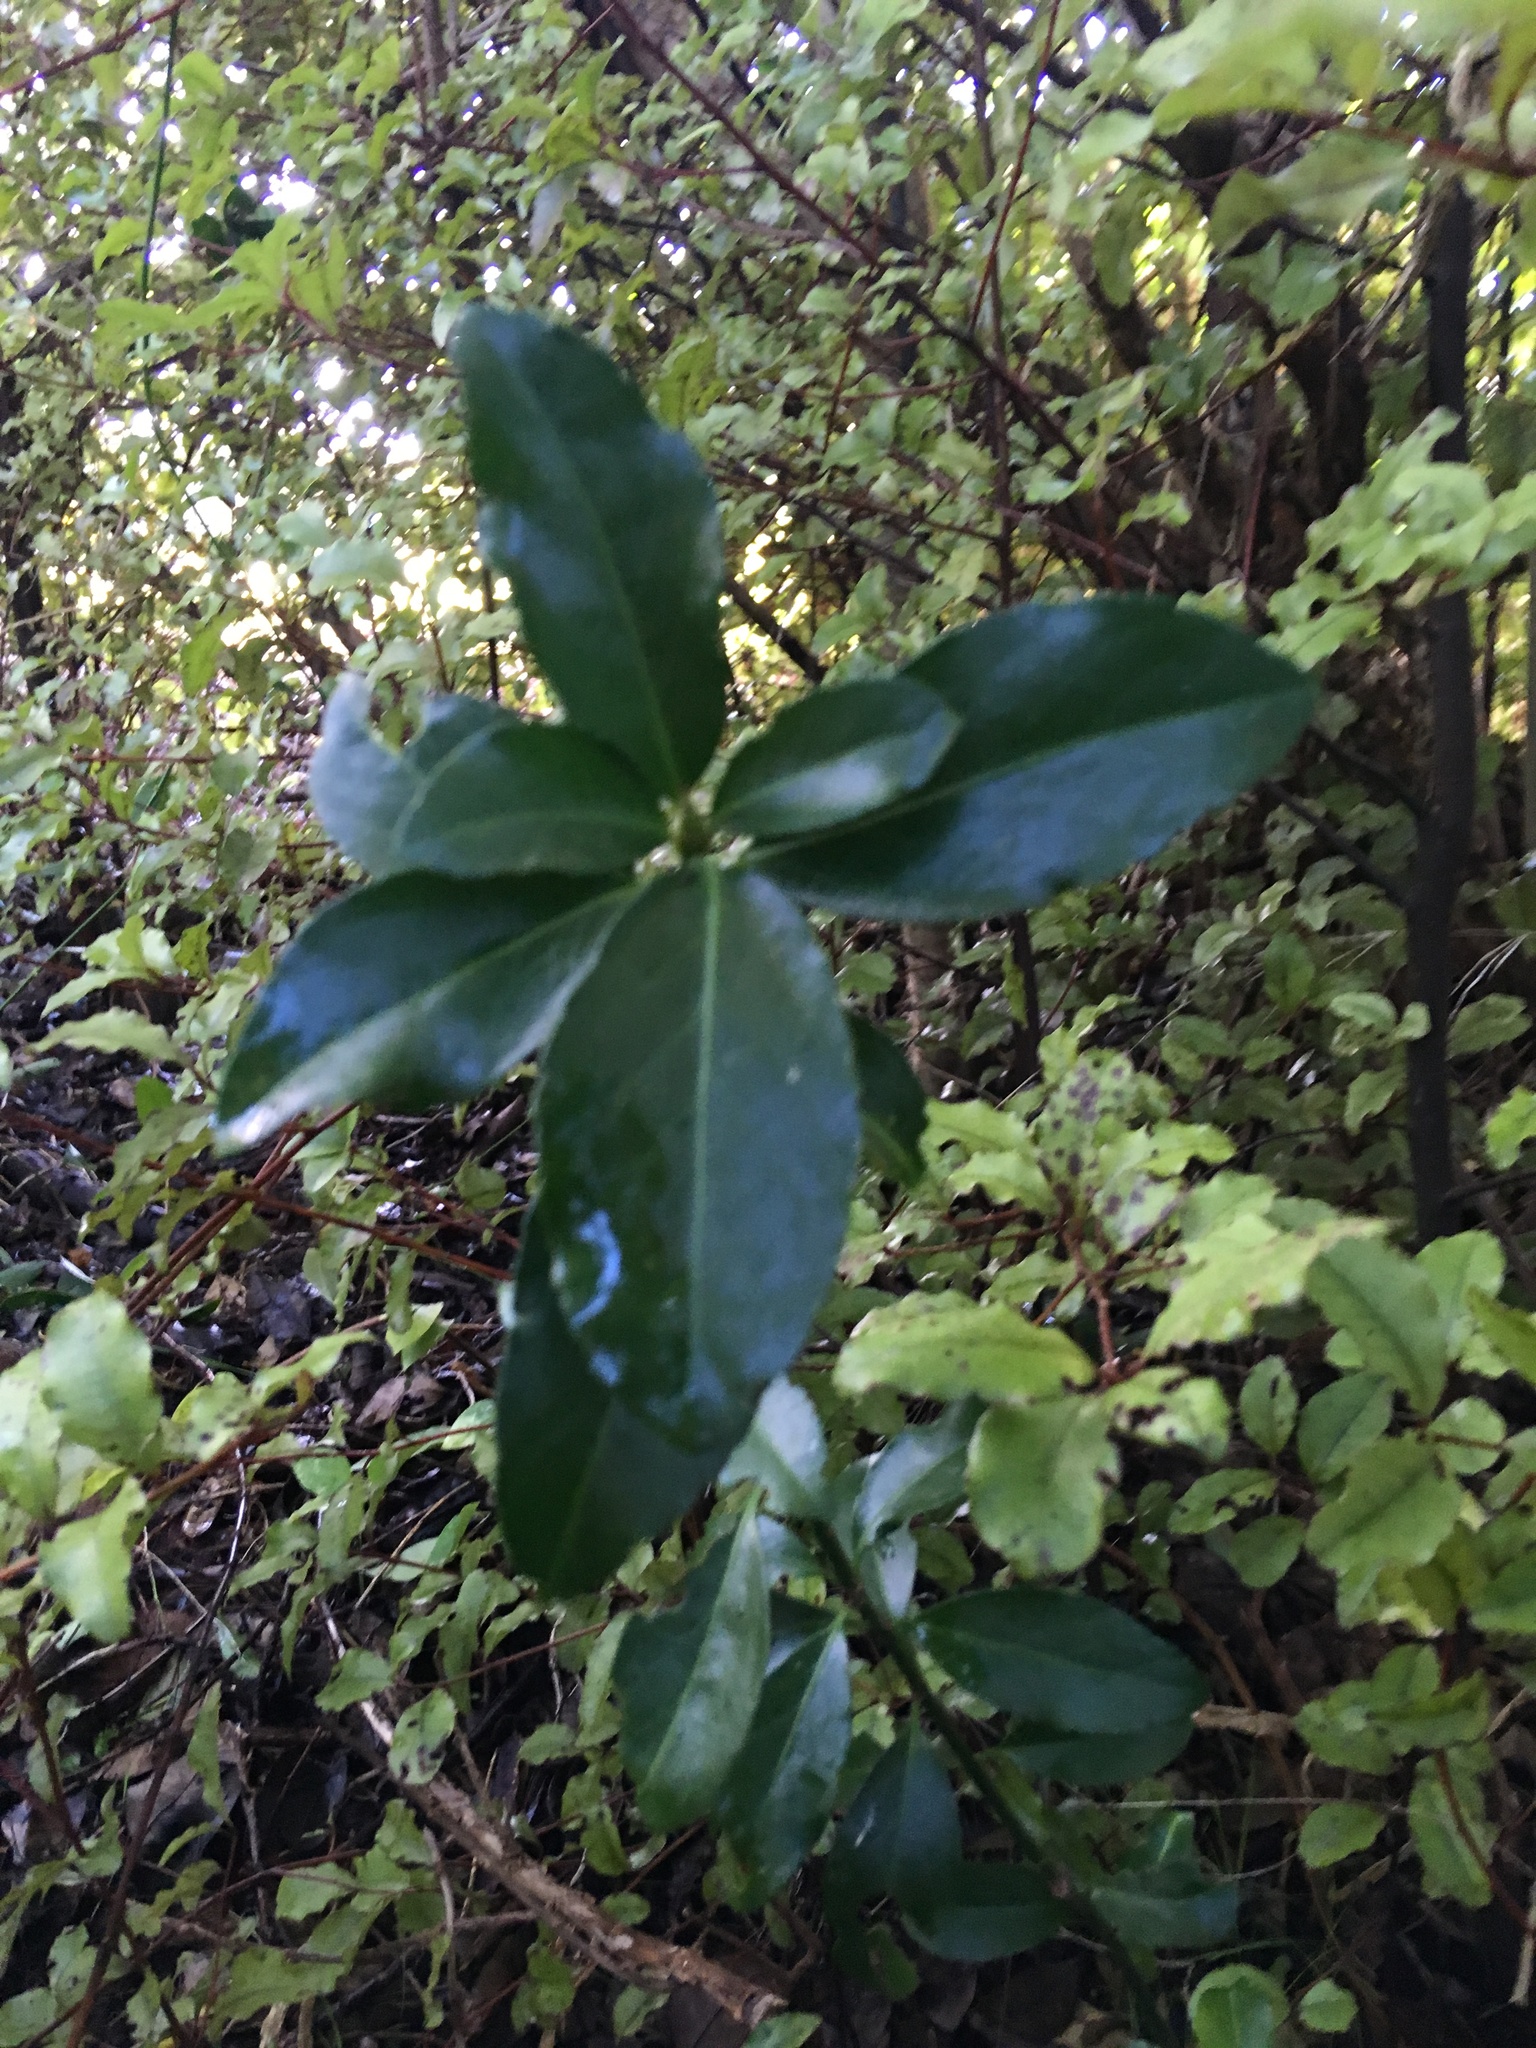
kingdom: Plantae
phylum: Tracheophyta
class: Magnoliopsida
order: Celastrales
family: Celastraceae
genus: Euonymus
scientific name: Euonymus japonicus
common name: Japanese spindletree
